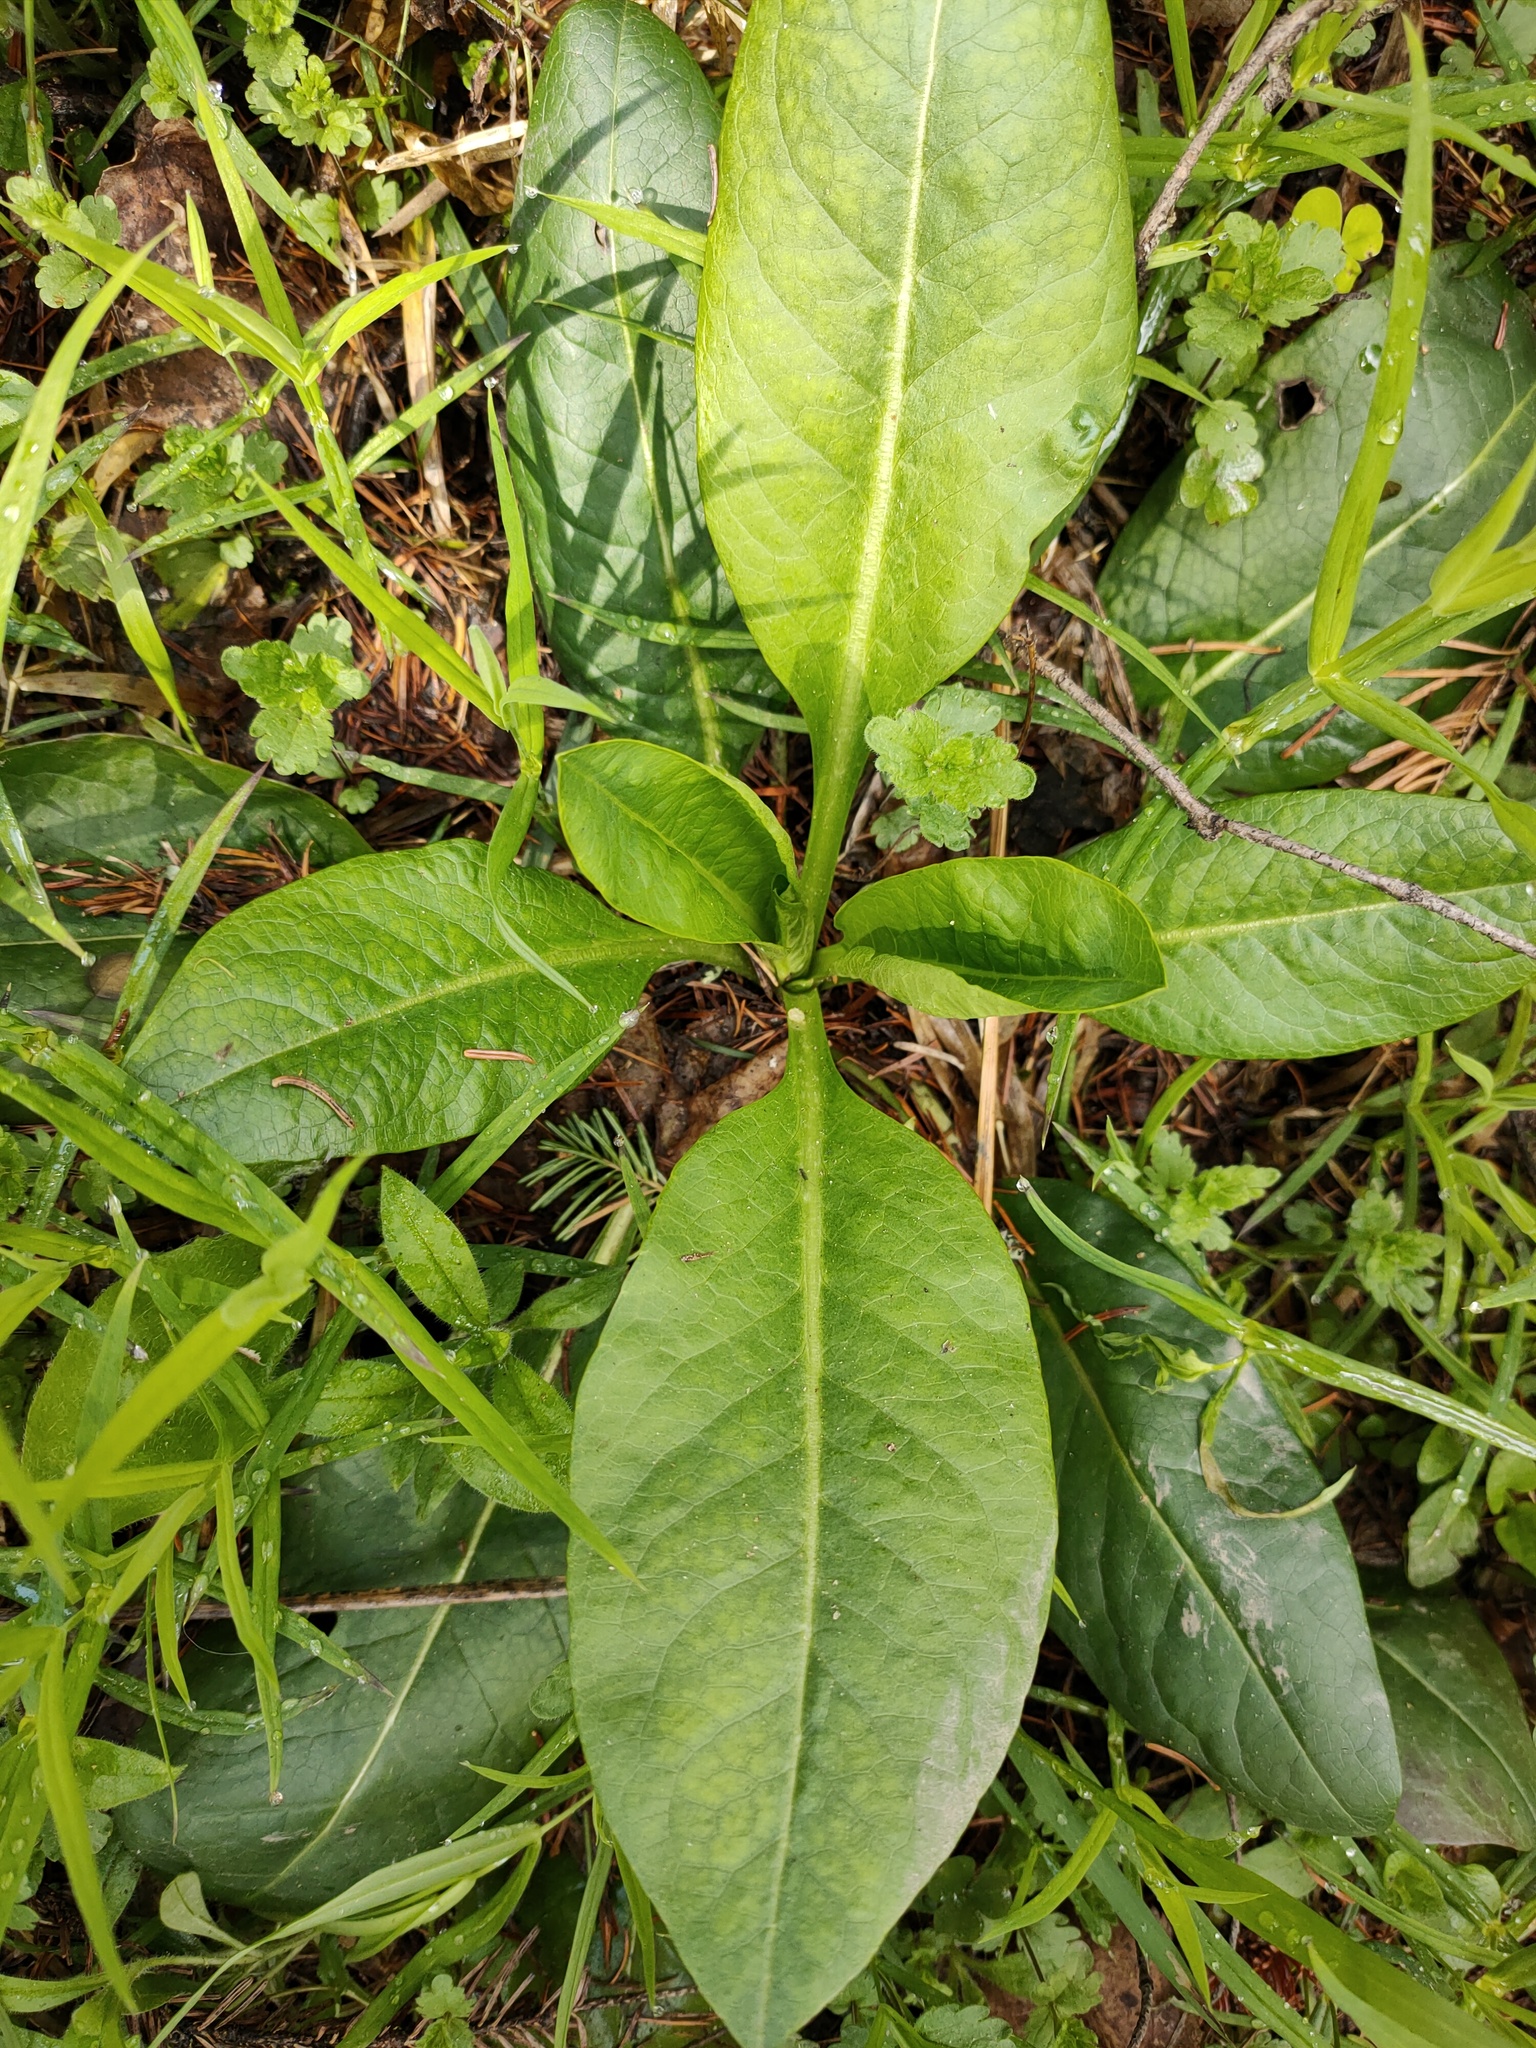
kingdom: Plantae
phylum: Tracheophyta
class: Magnoliopsida
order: Dipsacales
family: Caprifoliaceae
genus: Succisa
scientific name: Succisa pratensis
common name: Devil's-bit
